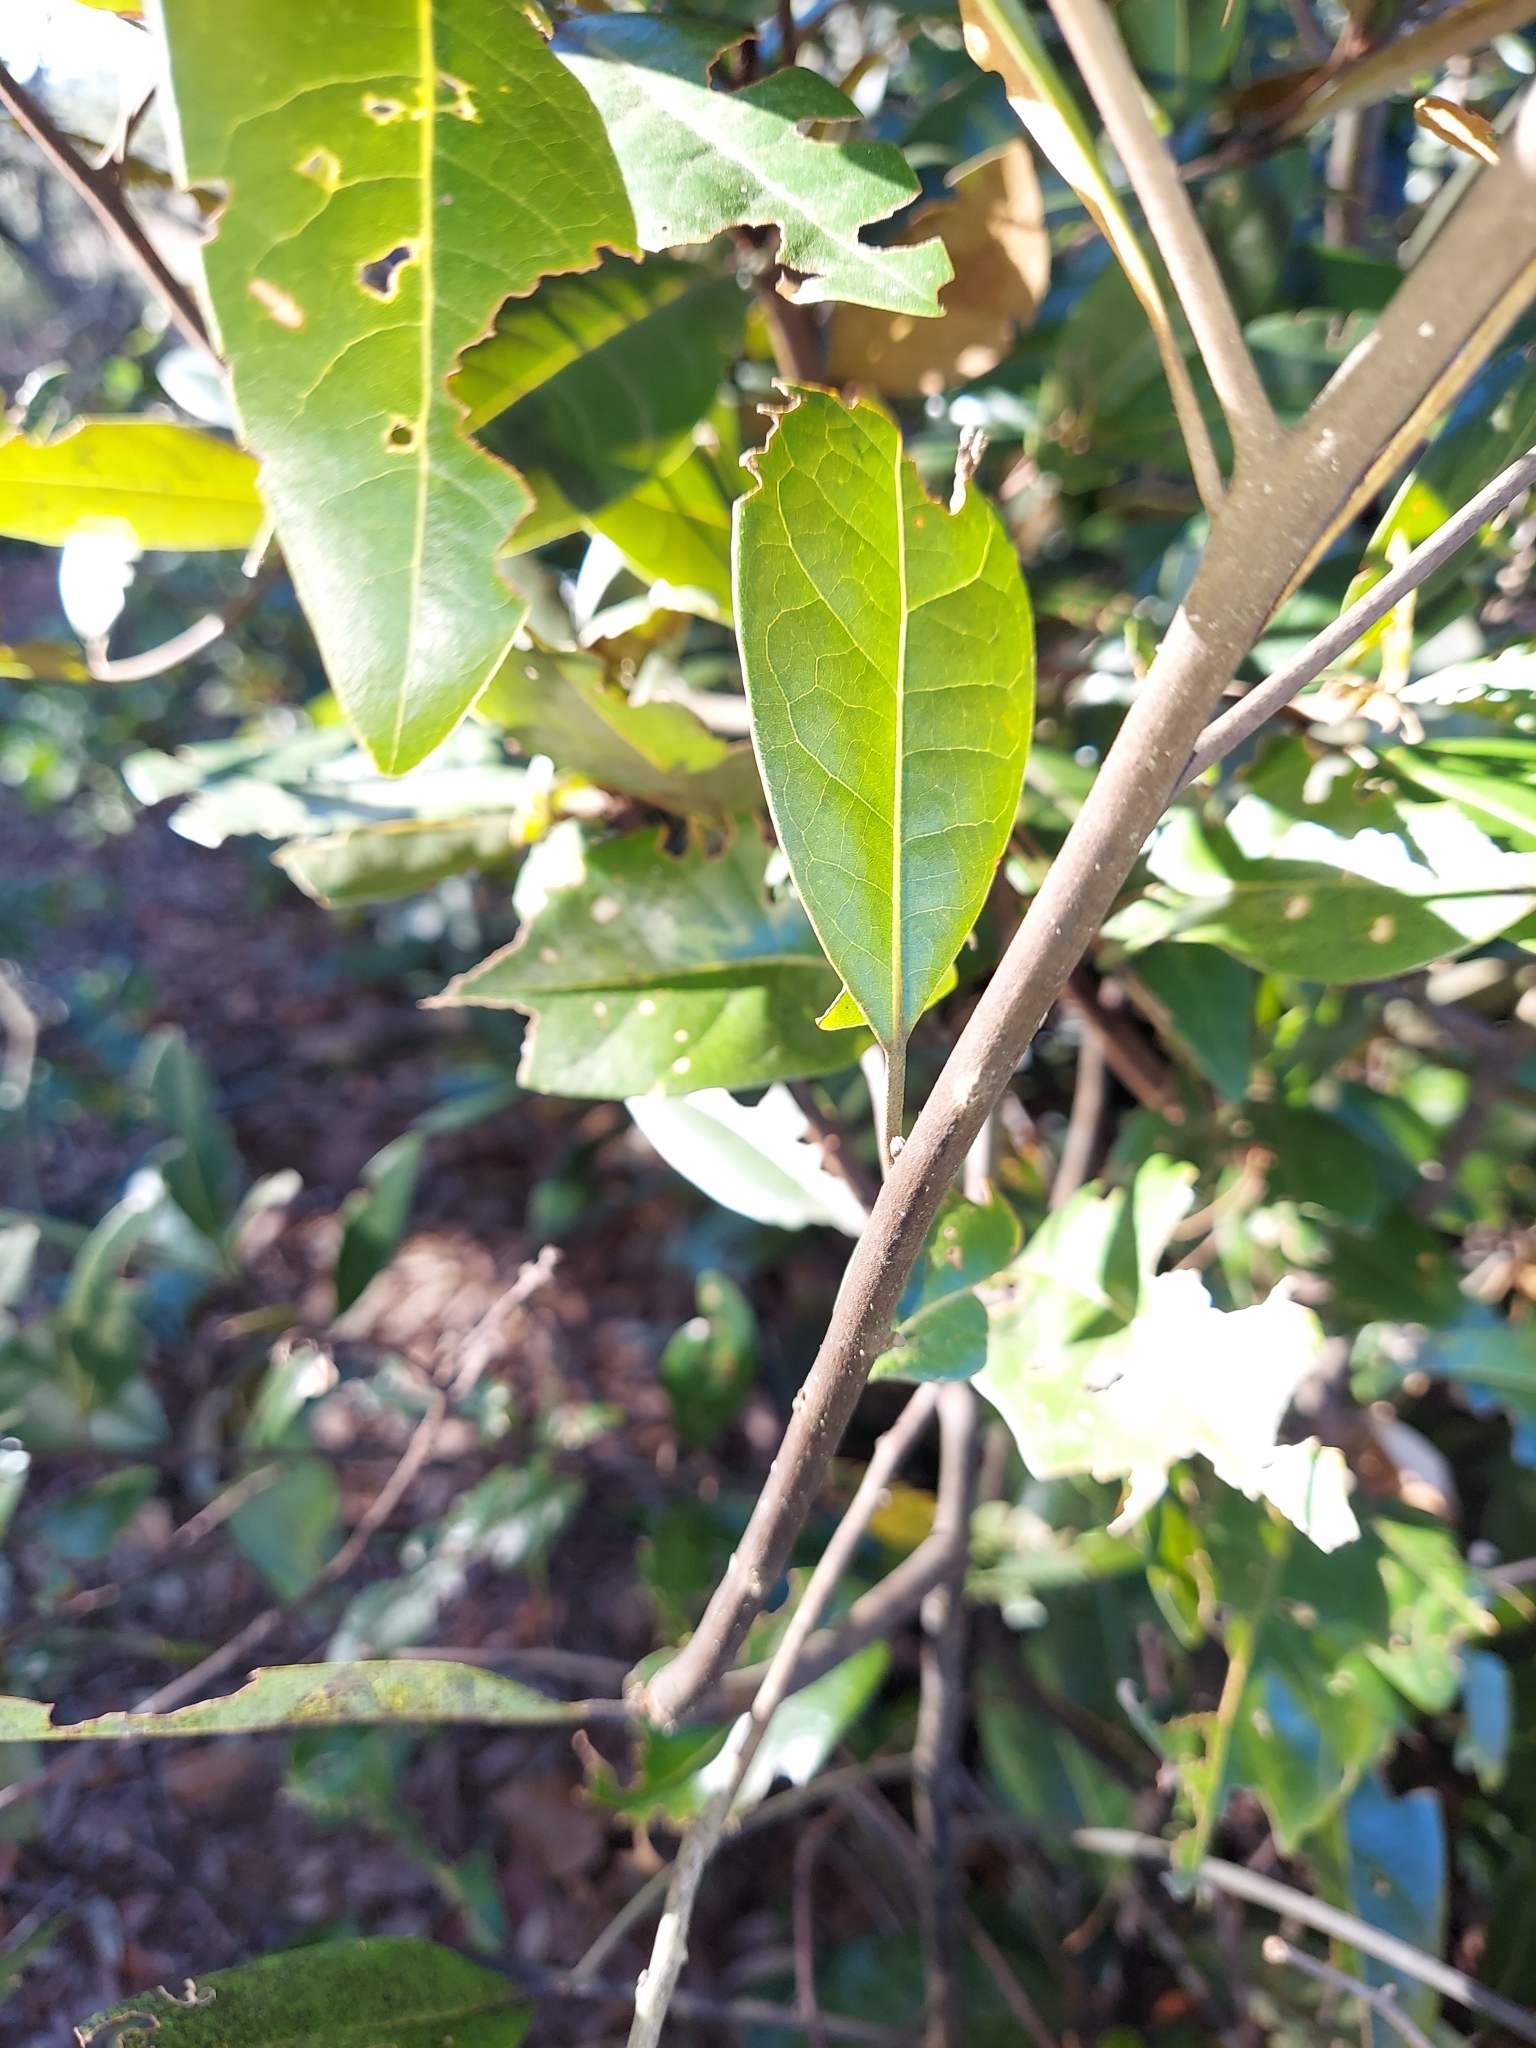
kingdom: Plantae
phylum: Tracheophyta
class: Magnoliopsida
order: Laurales
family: Lauraceae
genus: Persea
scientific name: Persea humilis
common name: Silkbay
